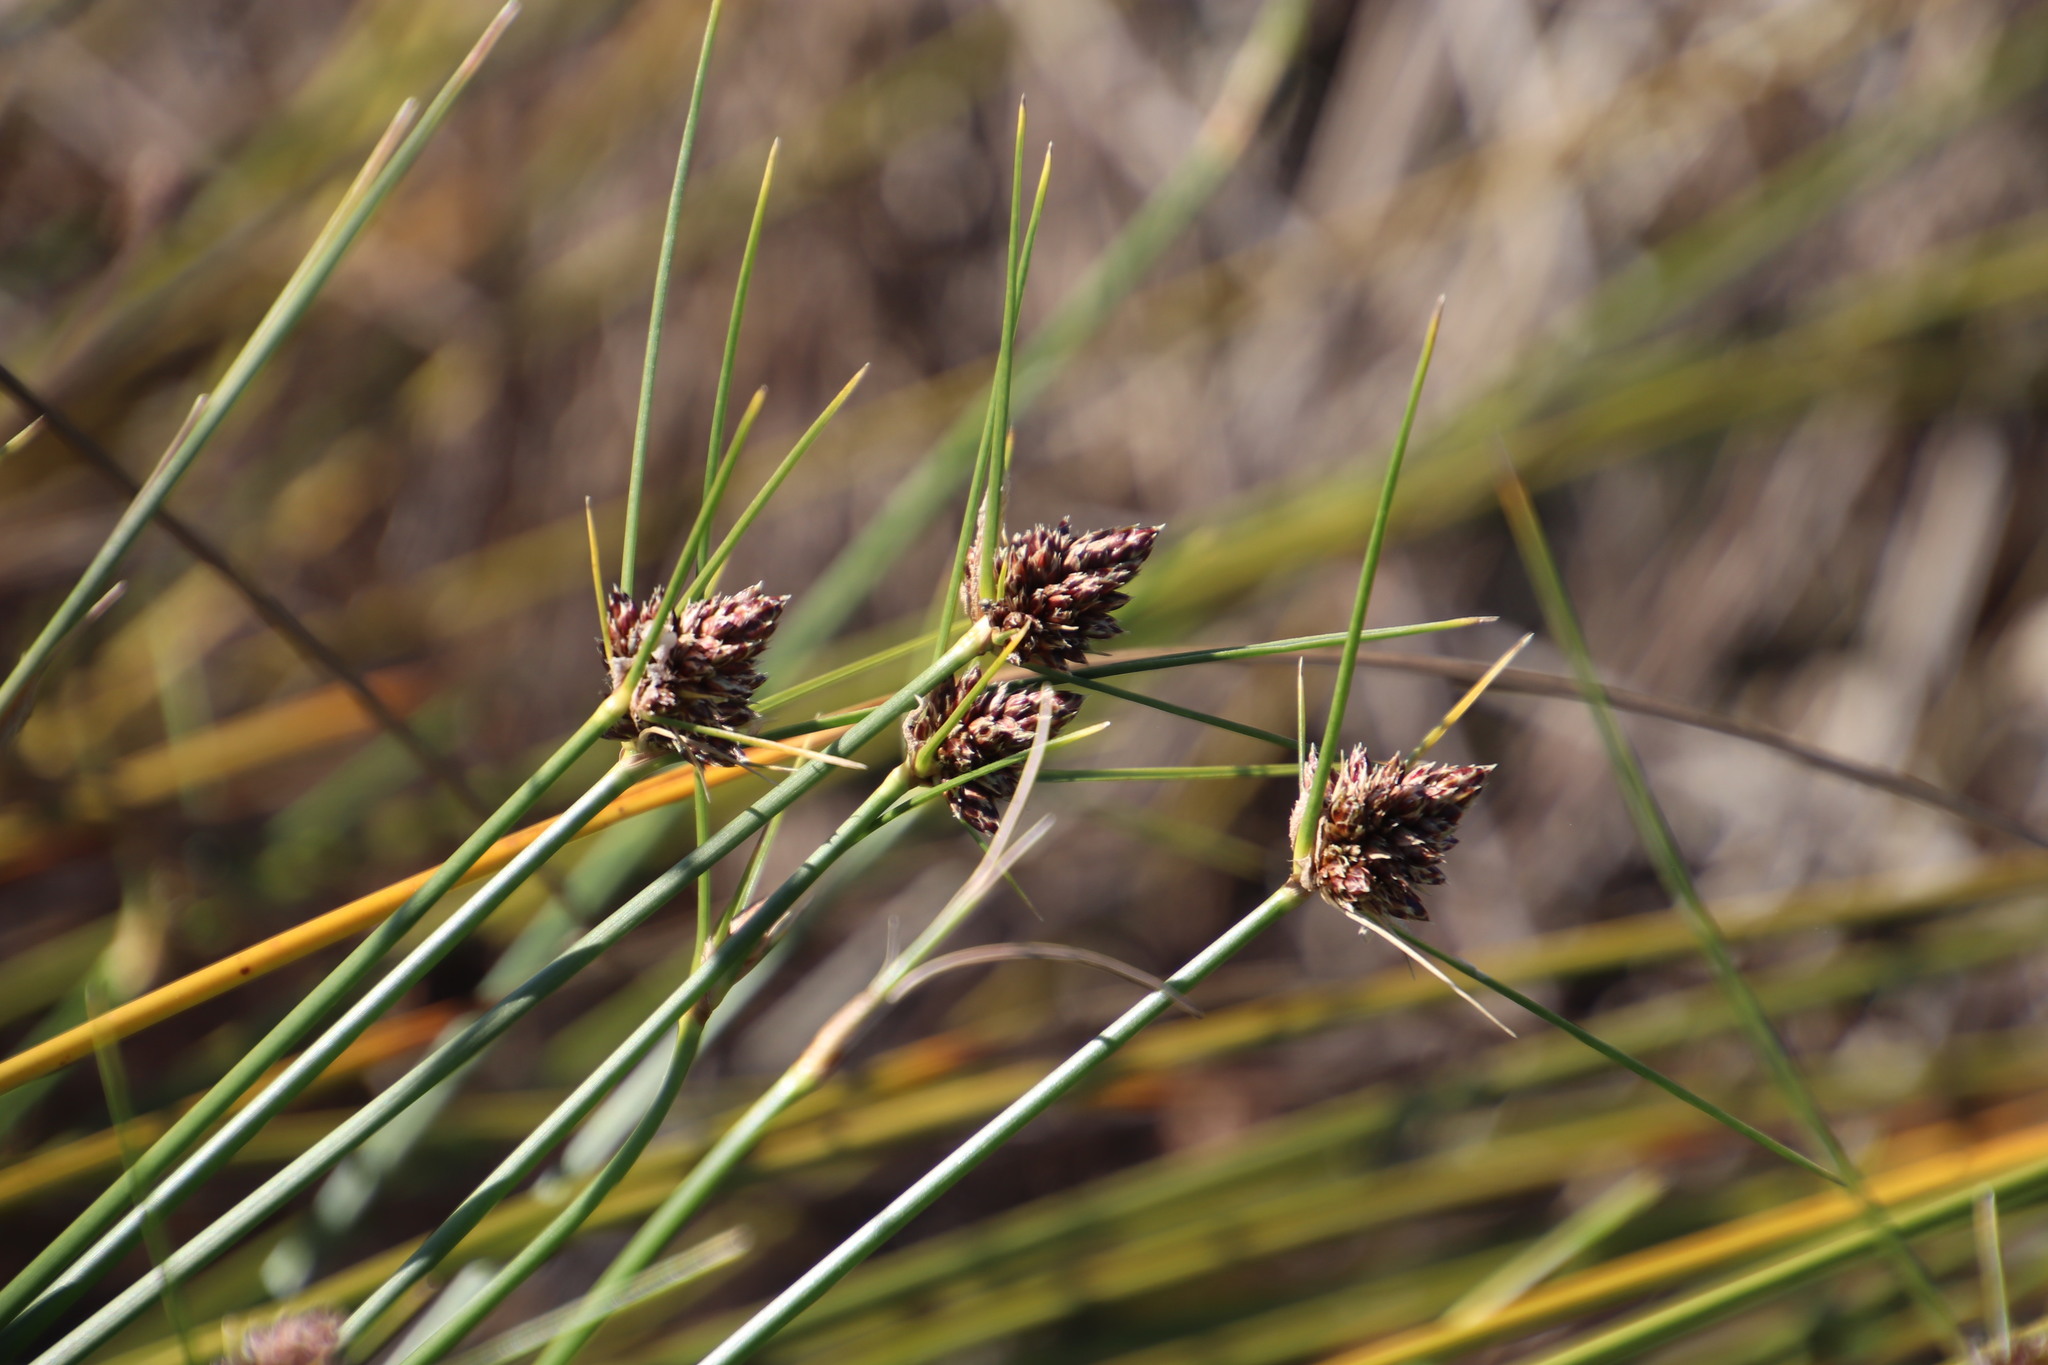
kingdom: Plantae
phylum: Tracheophyta
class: Liliopsida
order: Poales
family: Cyperaceae
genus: Ficinia
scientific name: Ficinia brevifolia
